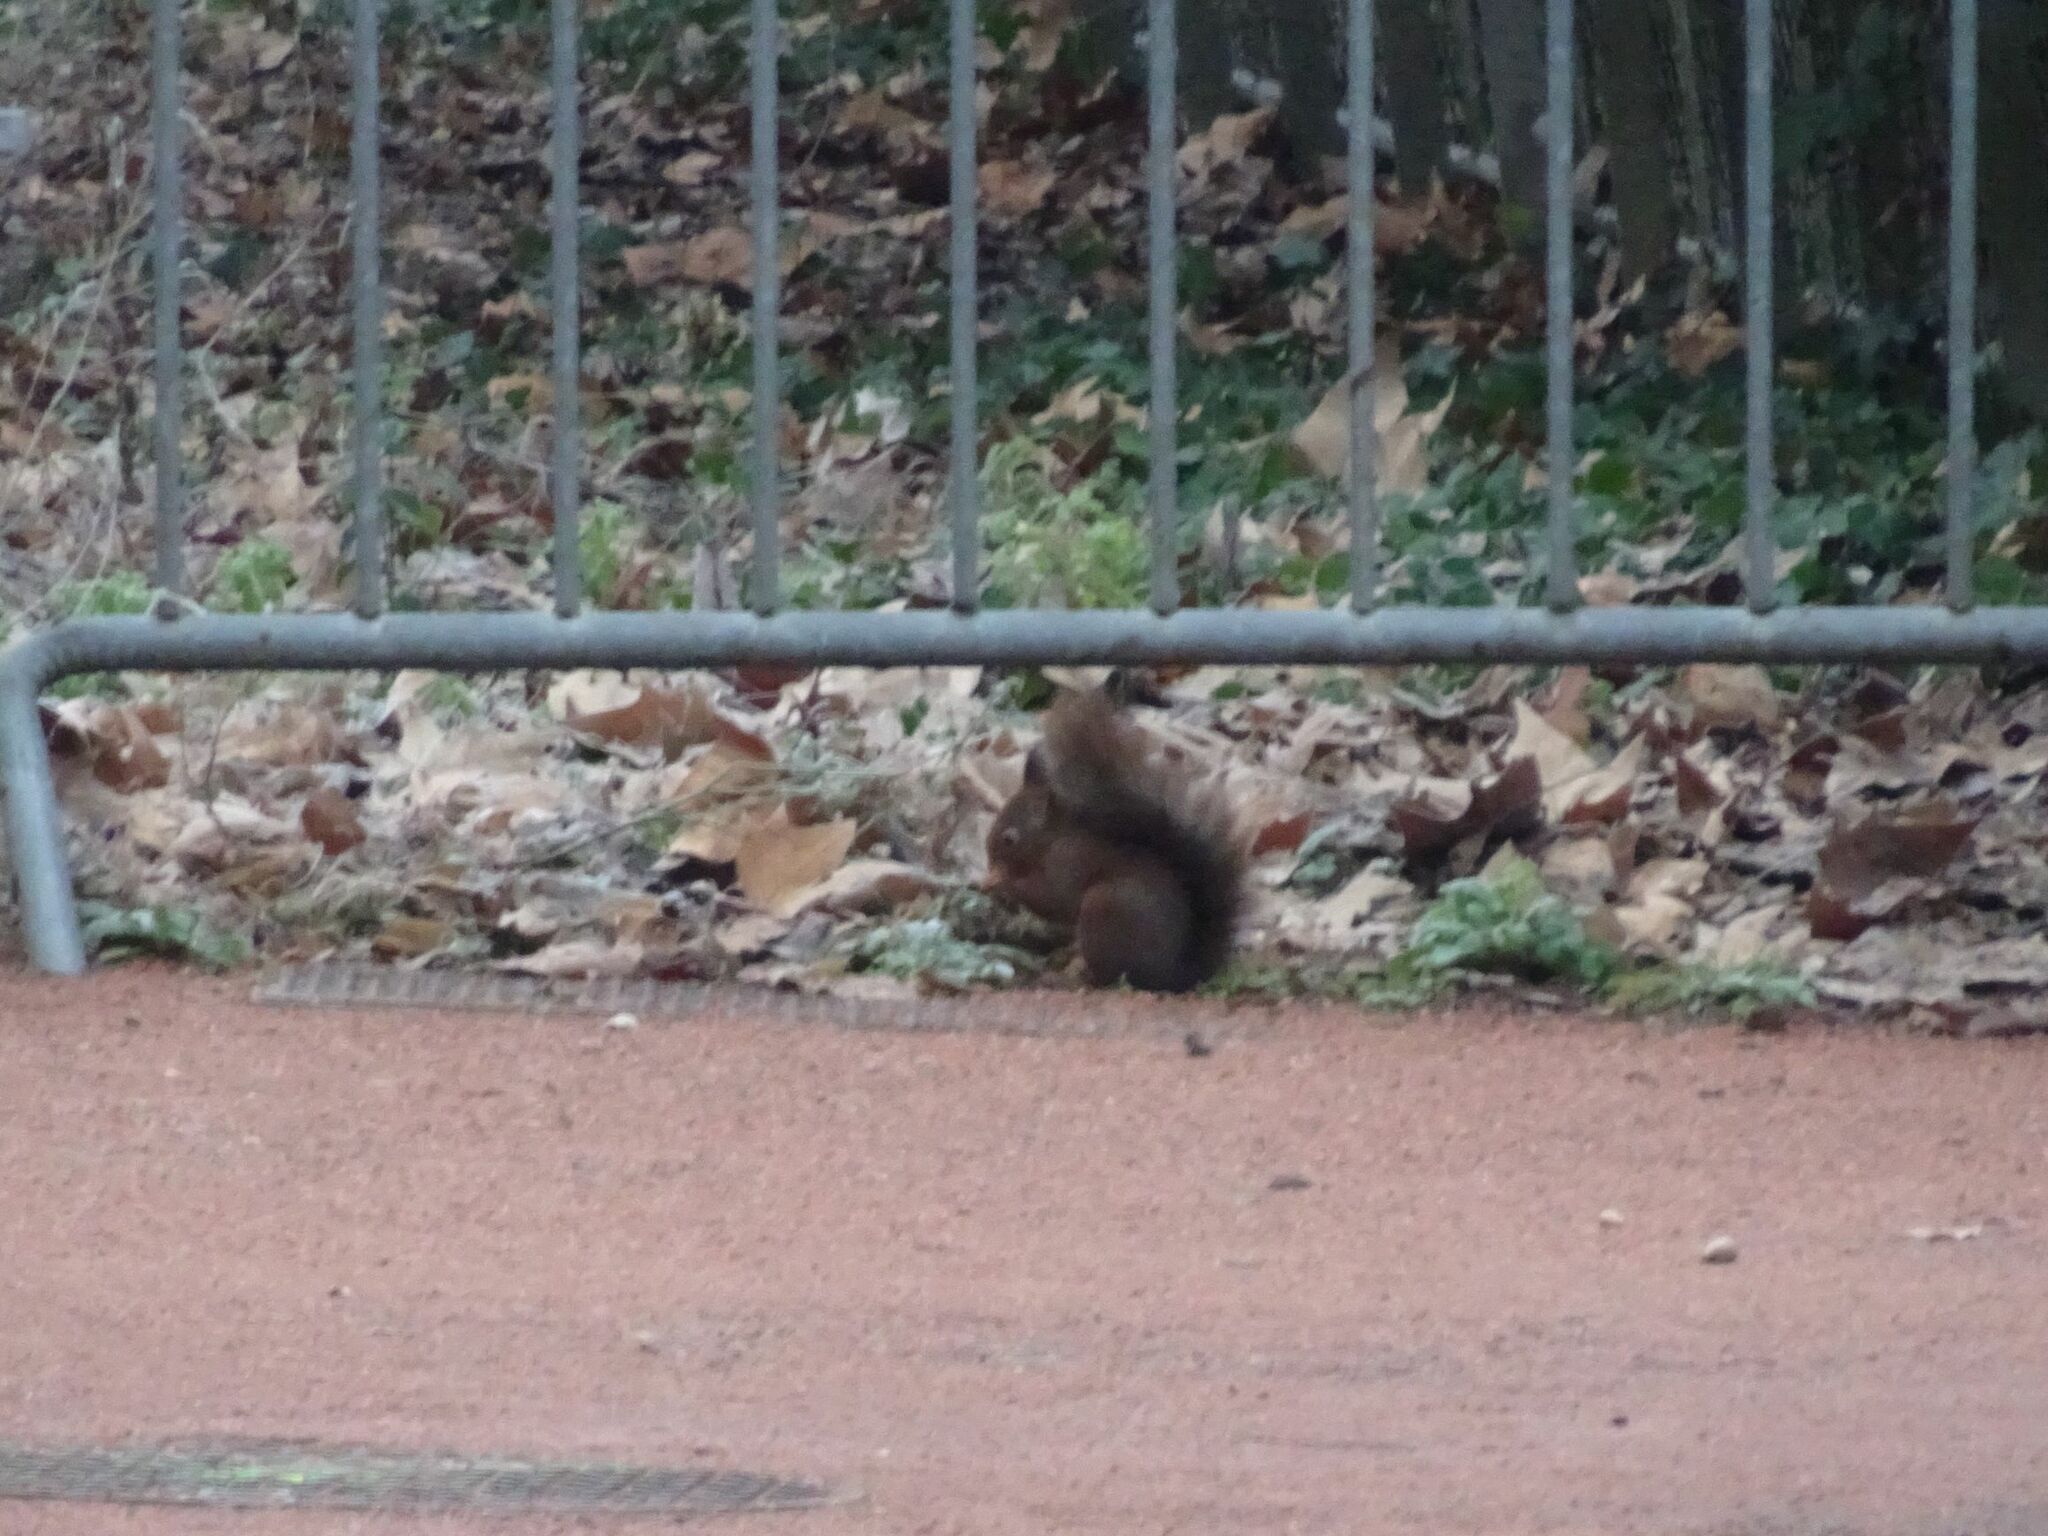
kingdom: Animalia
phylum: Chordata
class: Mammalia
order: Rodentia
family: Sciuridae
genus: Sciurus
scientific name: Sciurus vulgaris
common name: Eurasian red squirrel
